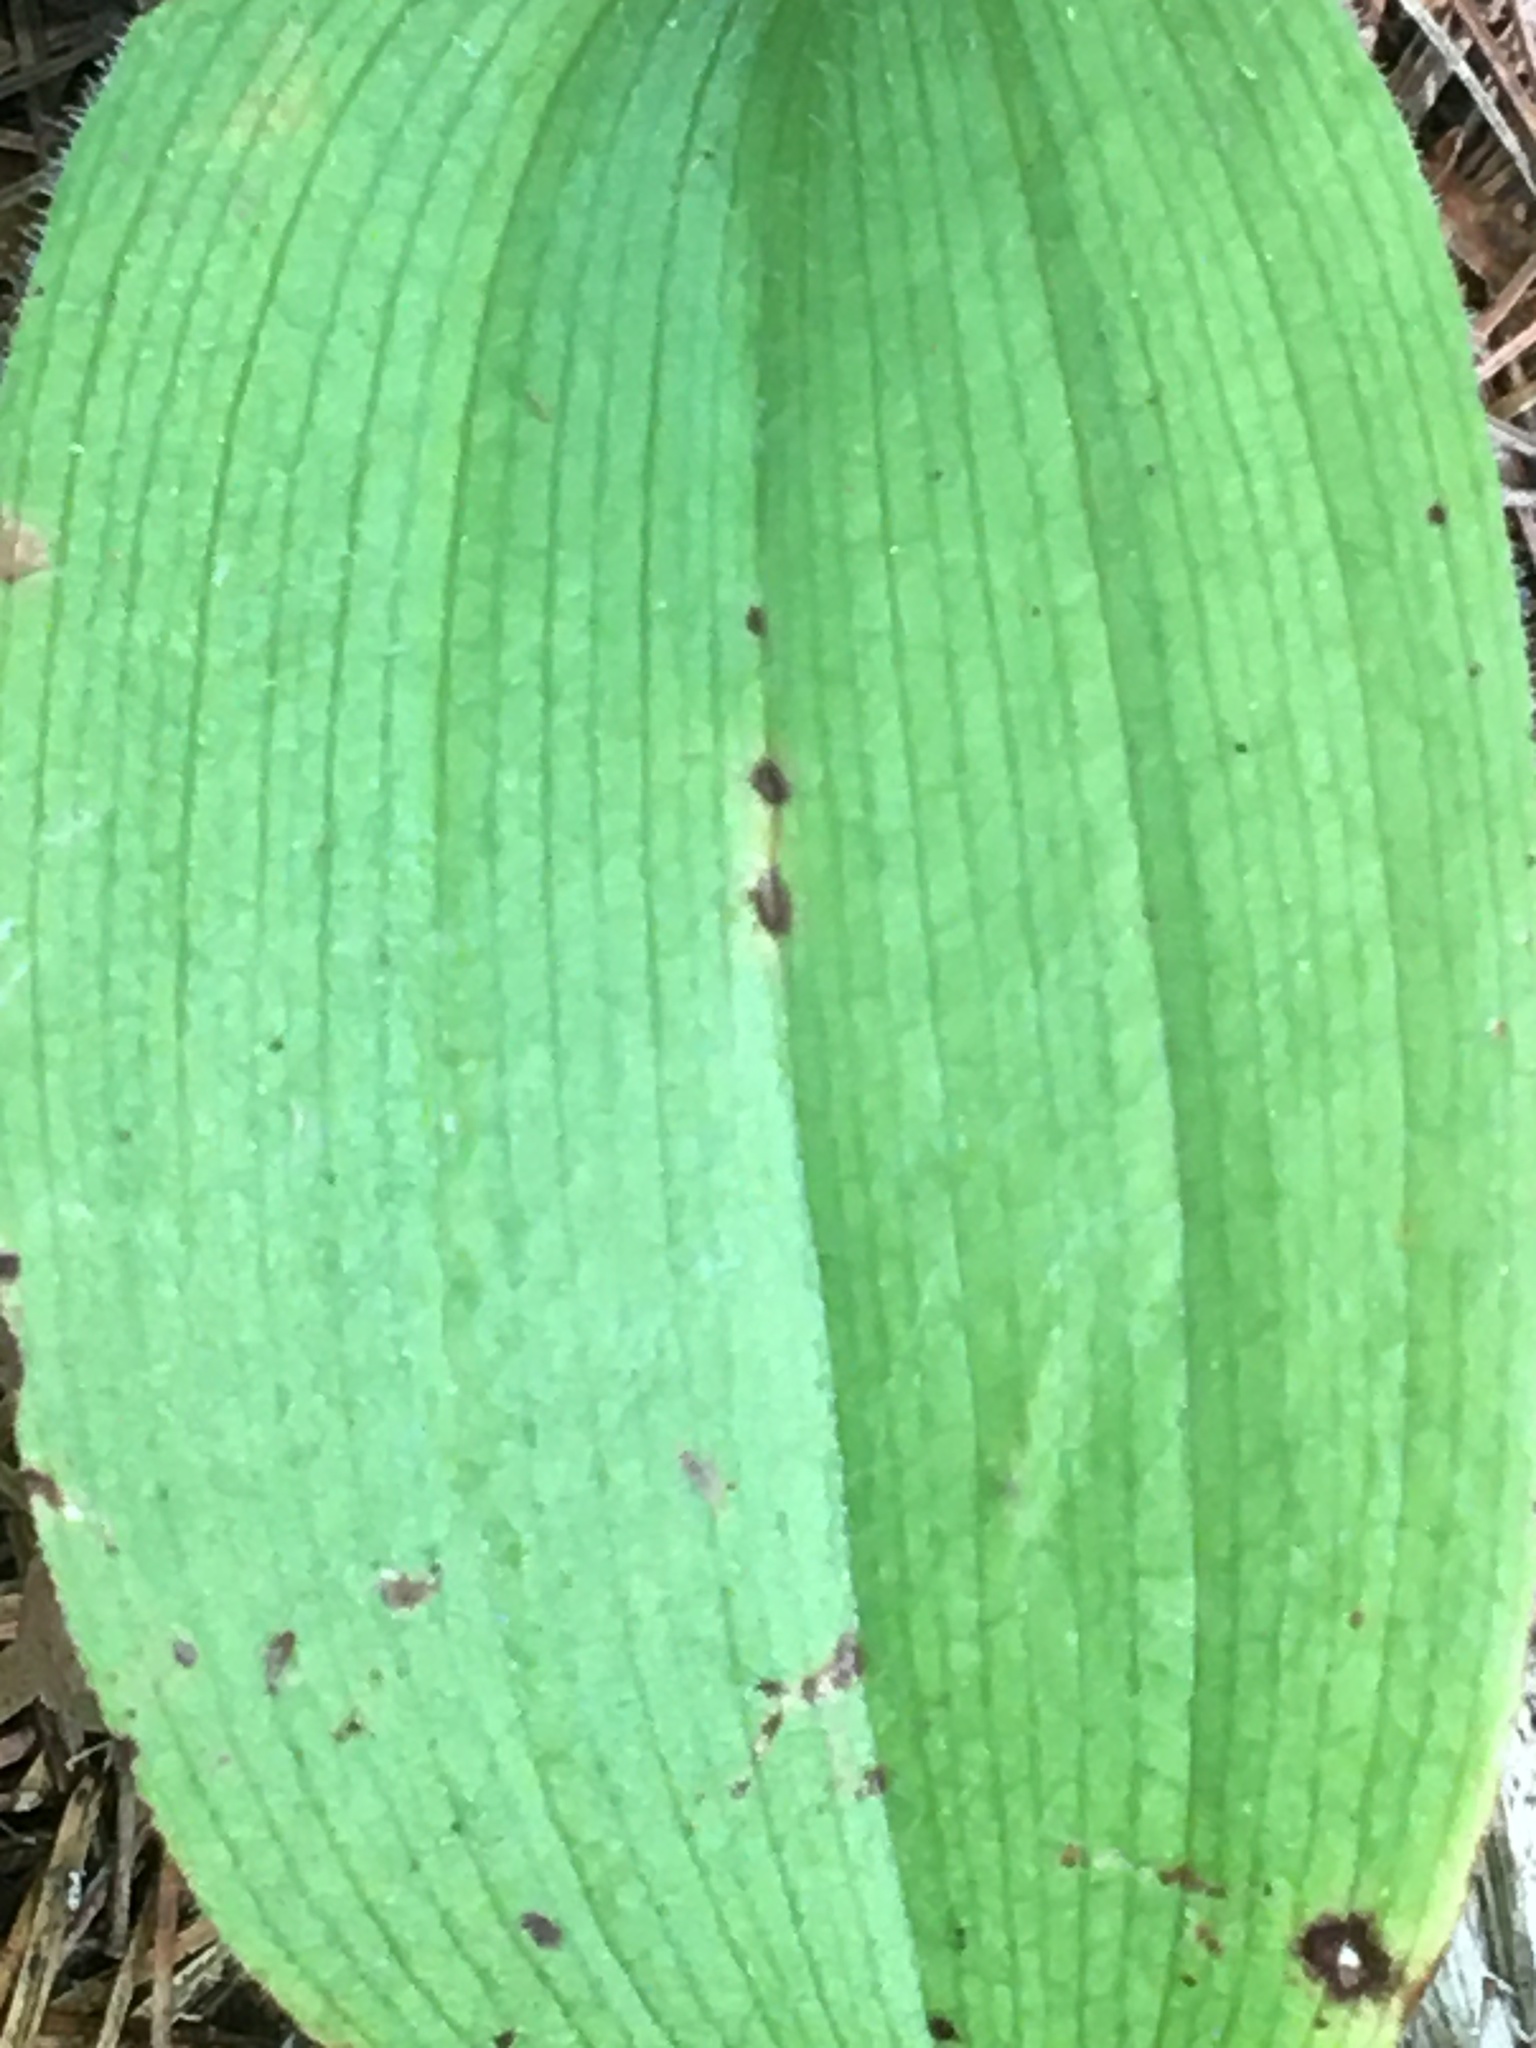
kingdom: Plantae
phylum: Tracheophyta
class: Liliopsida
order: Asparagales
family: Orchidaceae
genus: Cypripedium
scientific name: Cypripedium acaule
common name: Pink lady's-slipper
